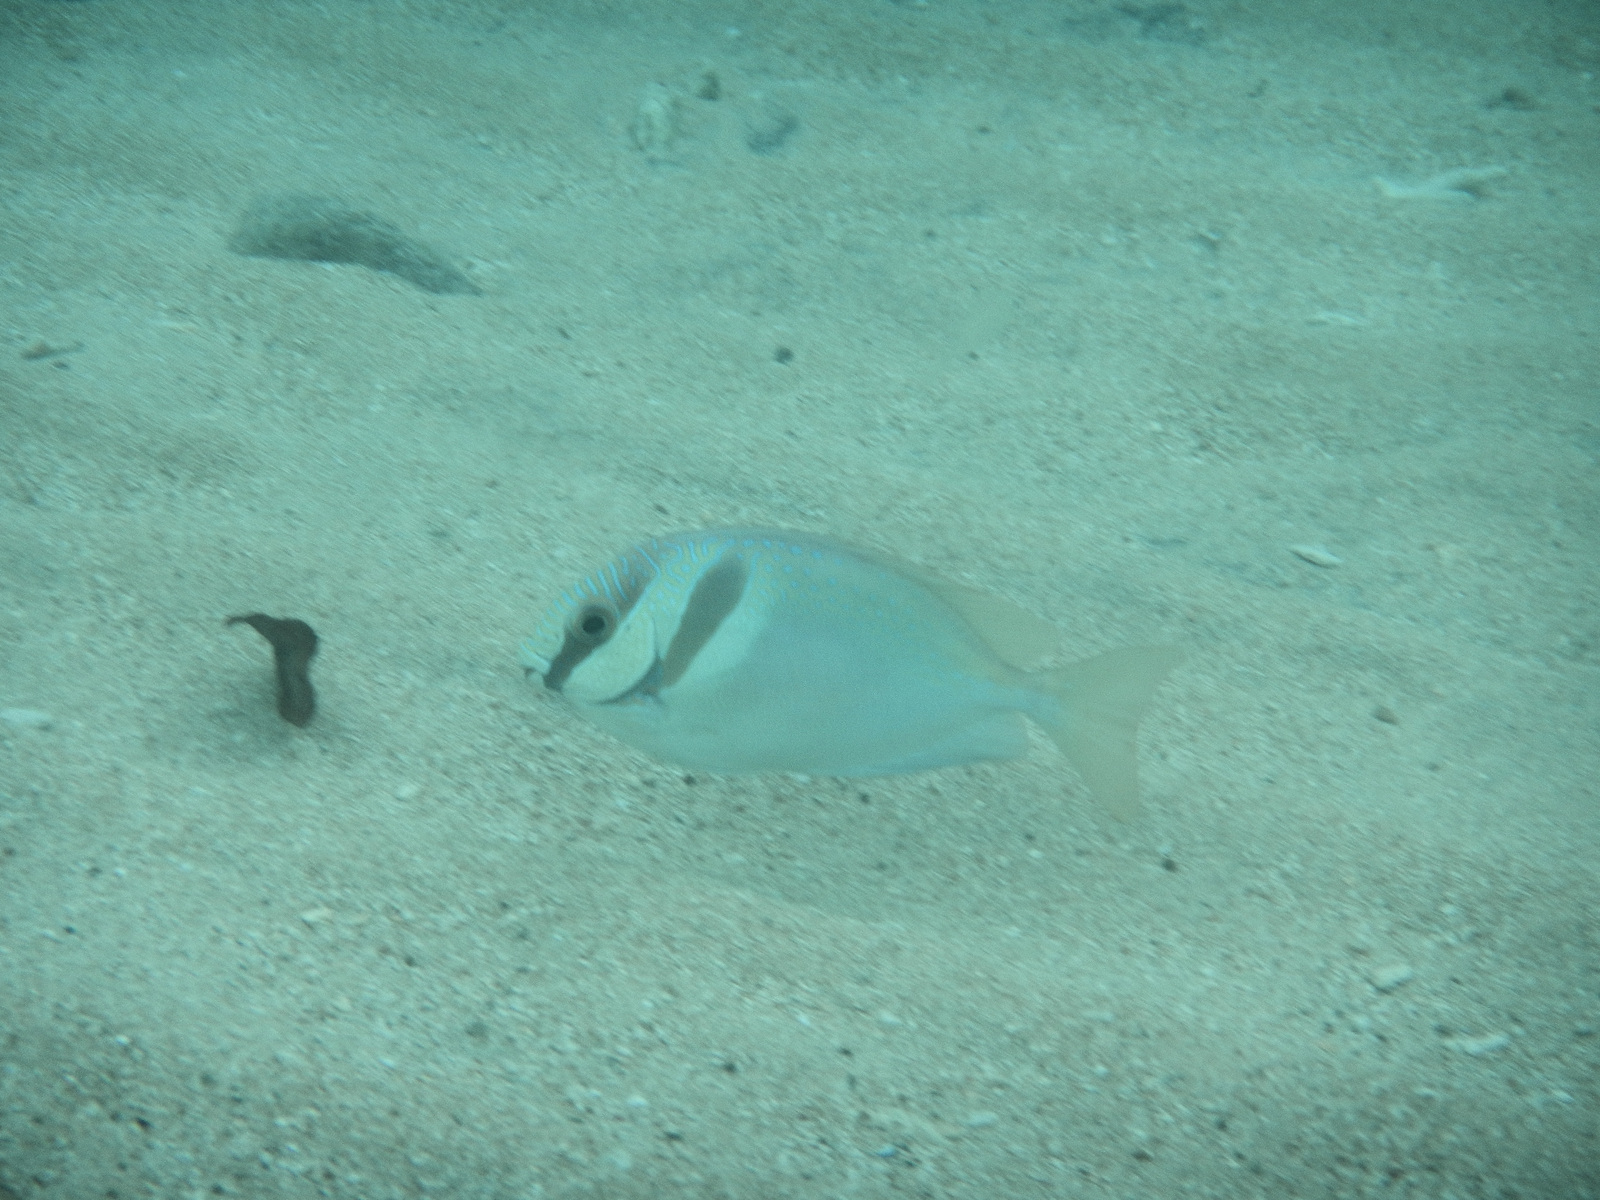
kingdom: Animalia
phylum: Chordata
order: Perciformes
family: Siganidae
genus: Siganus
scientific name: Siganus virgatus
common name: Barhead spinefoot
